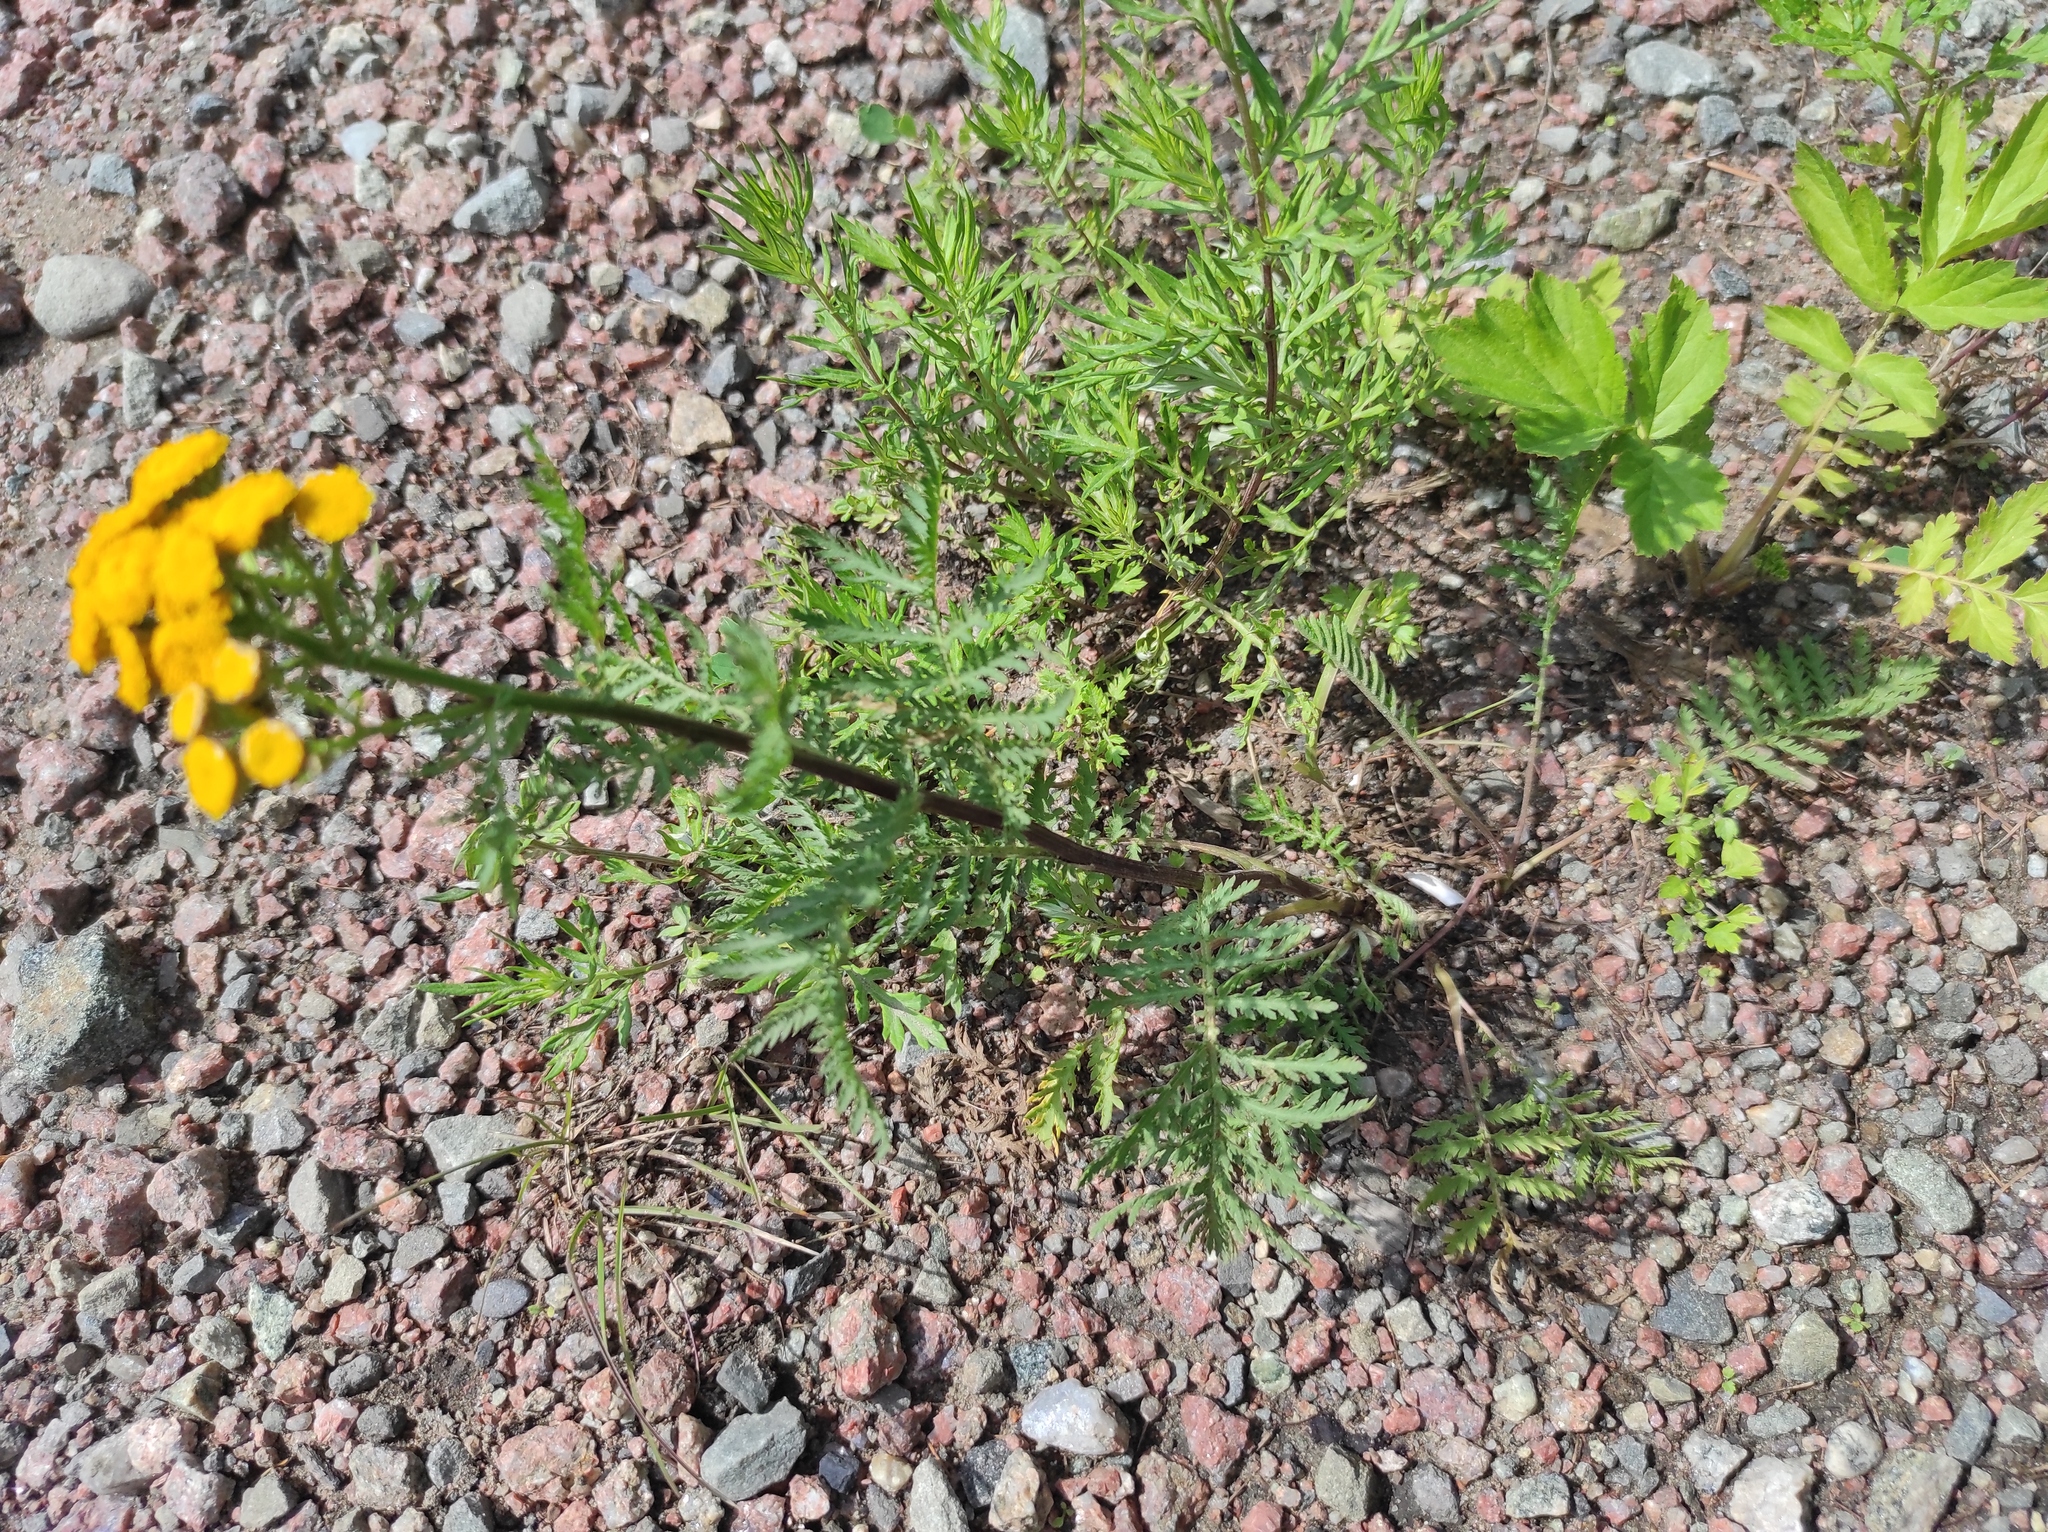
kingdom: Plantae
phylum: Tracheophyta
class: Magnoliopsida
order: Asterales
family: Asteraceae
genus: Tanacetum
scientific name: Tanacetum vulgare
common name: Common tansy
